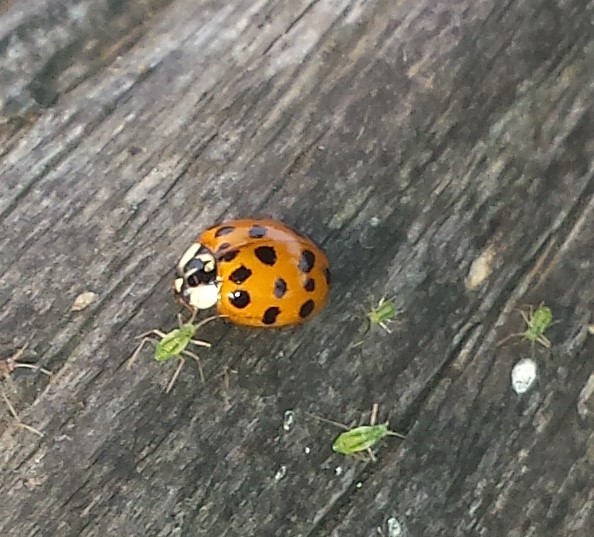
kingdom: Animalia
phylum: Arthropoda
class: Insecta
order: Coleoptera
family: Coccinellidae
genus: Harmonia
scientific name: Harmonia axyridis
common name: Harlequin ladybird
